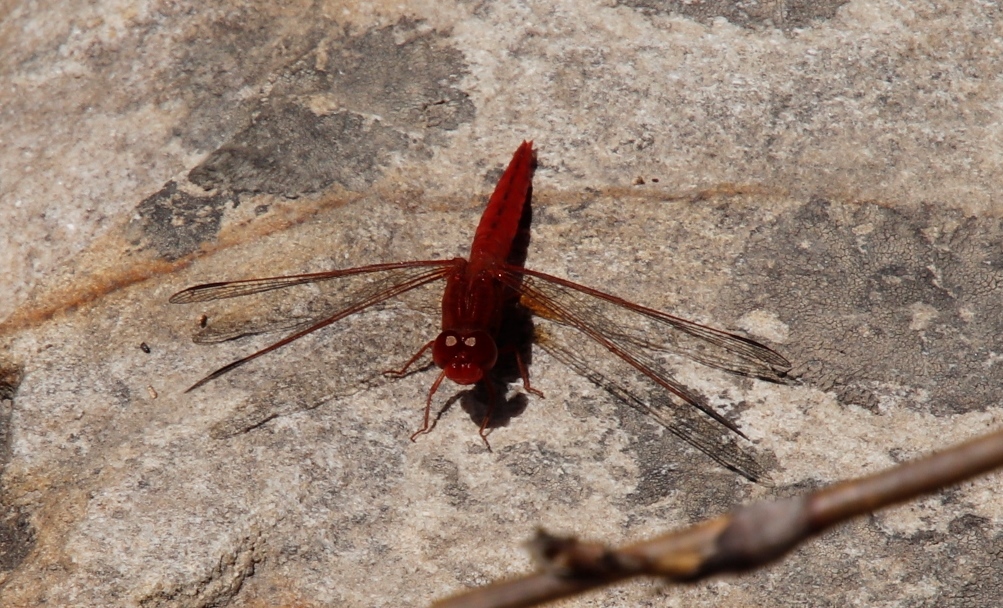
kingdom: Animalia
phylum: Arthropoda
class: Insecta
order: Odonata
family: Libellulidae
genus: Crocothemis
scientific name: Crocothemis sanguinolenta
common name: Little scarlet
